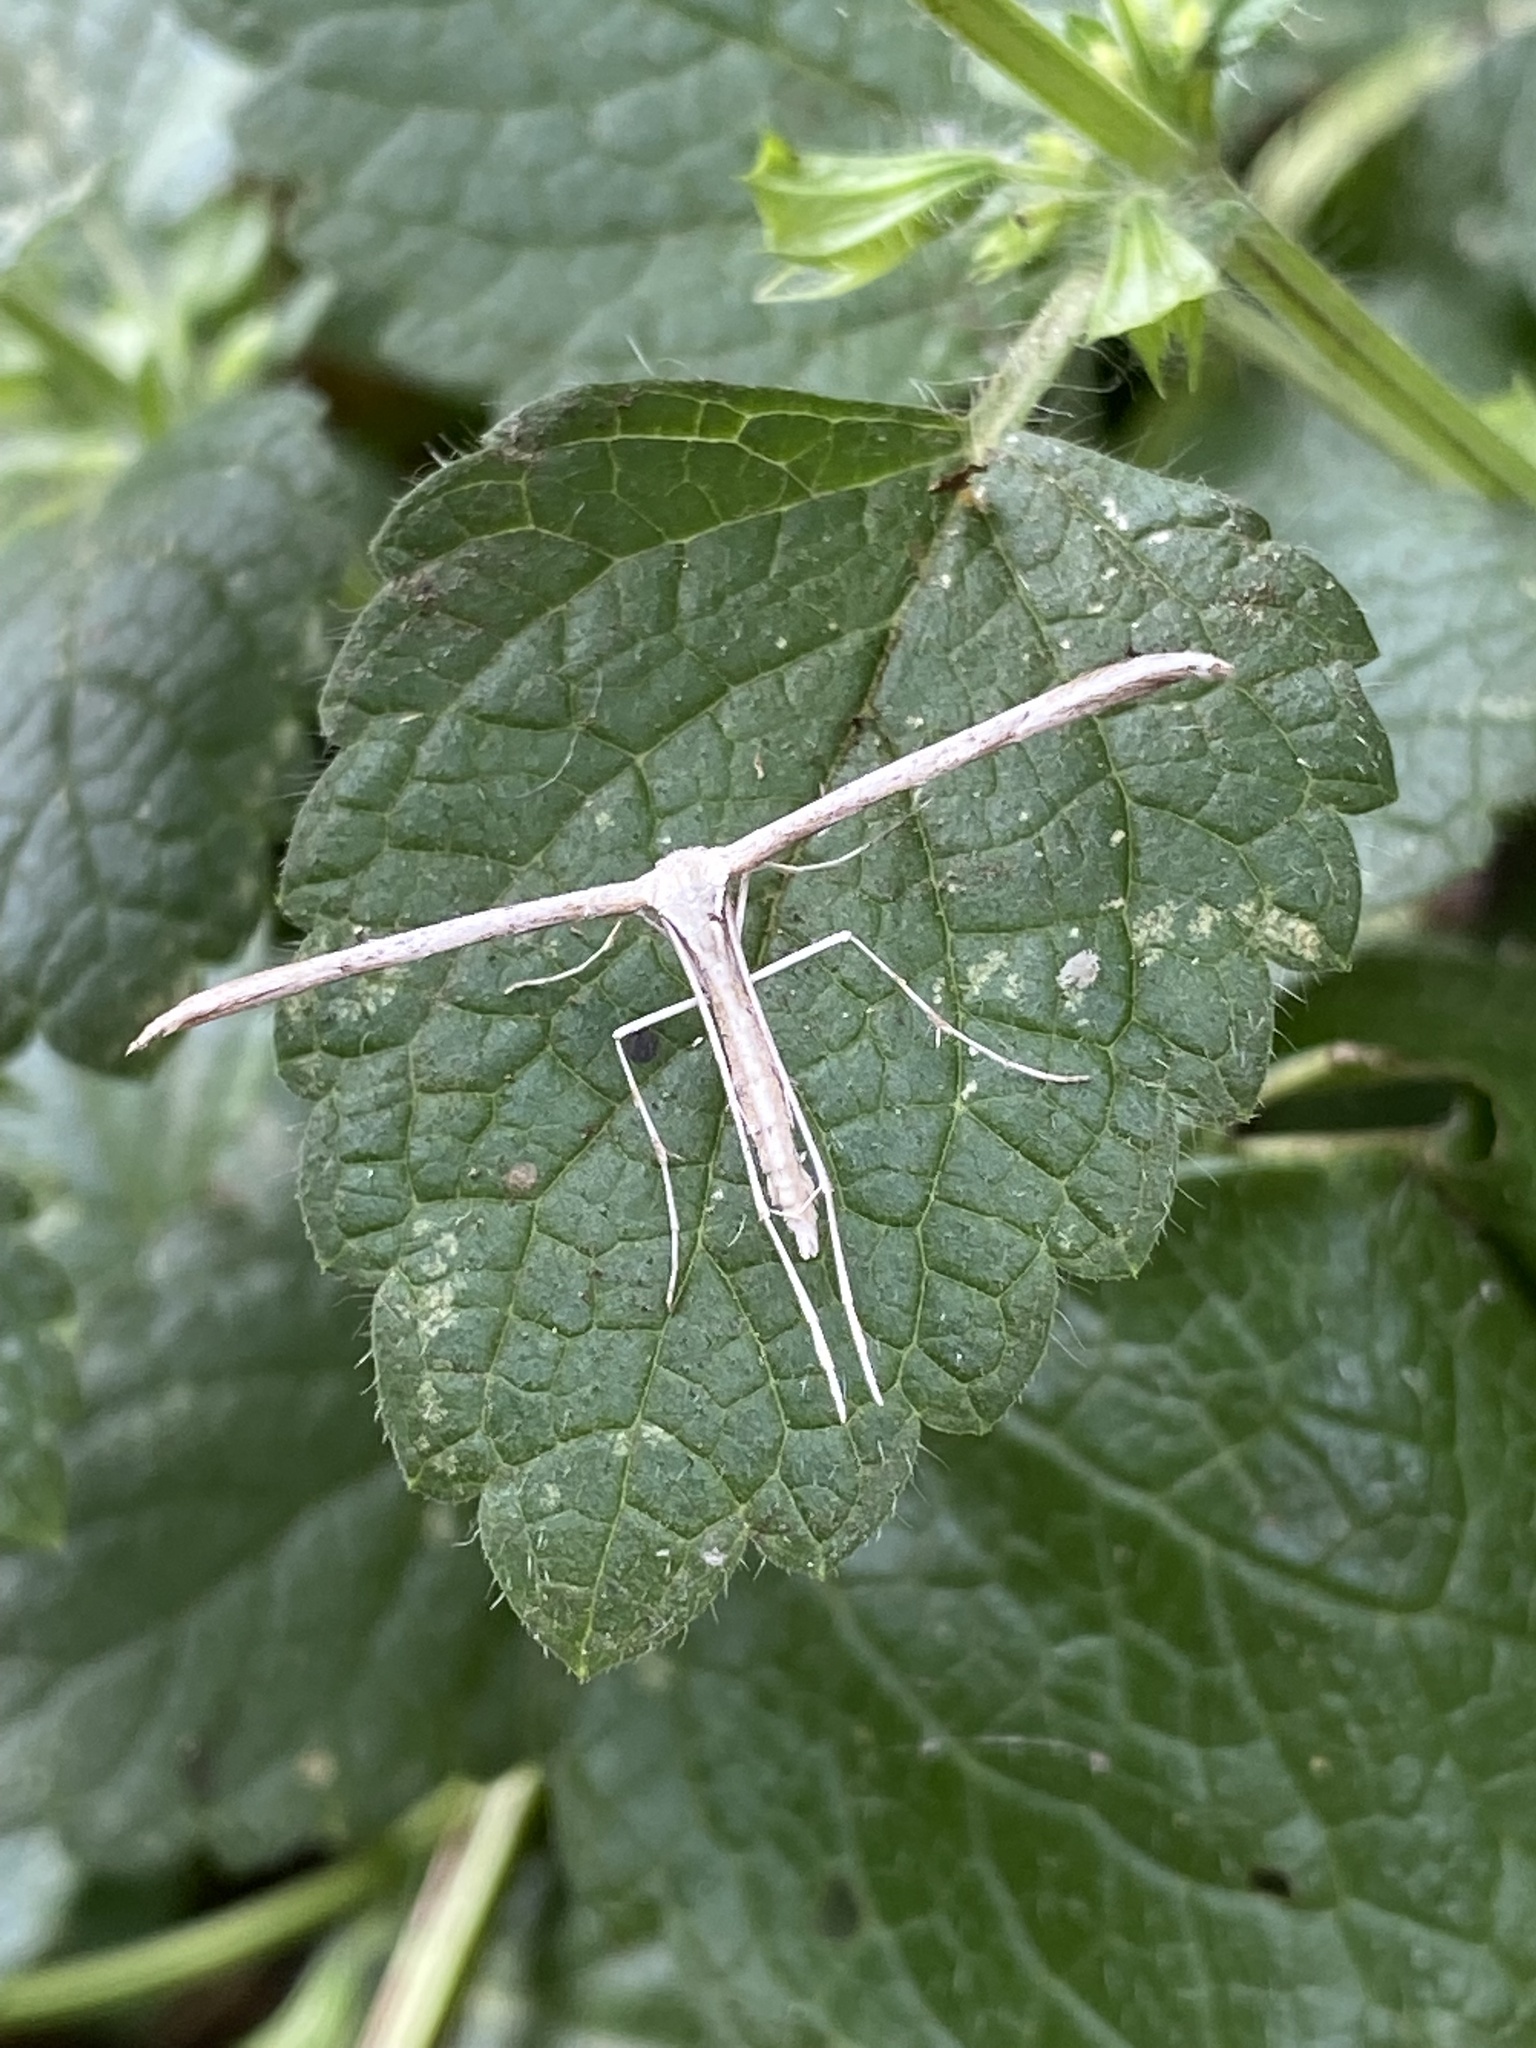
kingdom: Animalia
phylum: Arthropoda
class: Insecta
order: Lepidoptera
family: Pterophoridae
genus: Emmelina
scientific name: Emmelina monodactyla
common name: Common plume
